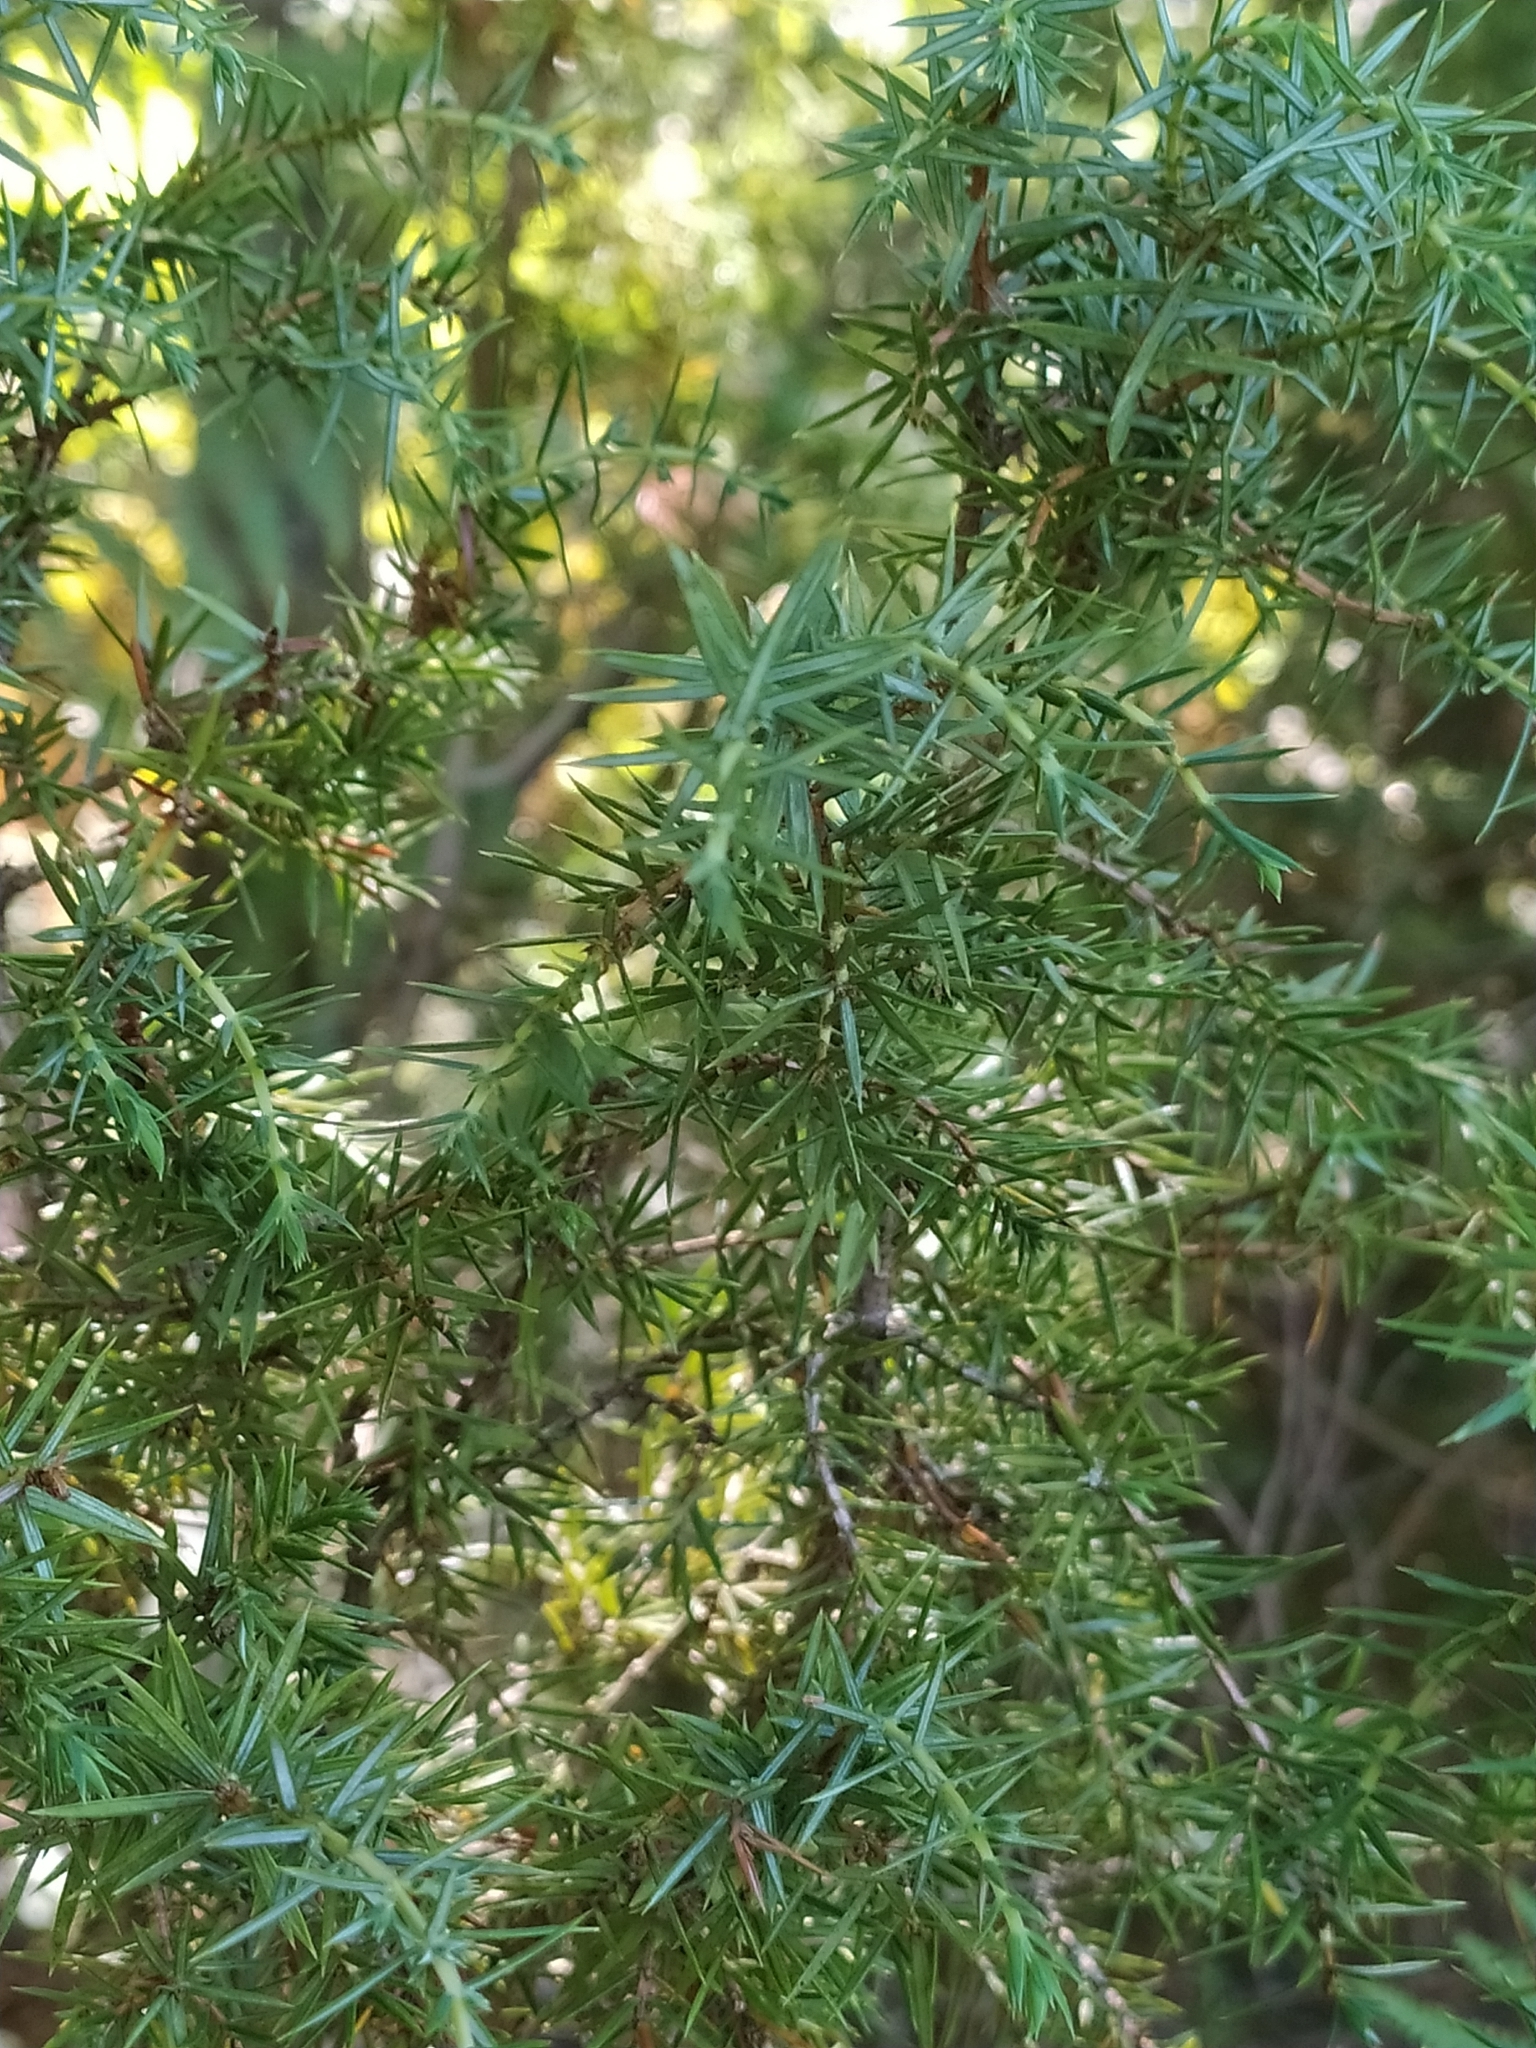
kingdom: Plantae
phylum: Tracheophyta
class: Pinopsida
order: Pinales
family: Cupressaceae
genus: Juniperus
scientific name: Juniperus communis
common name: Common juniper
